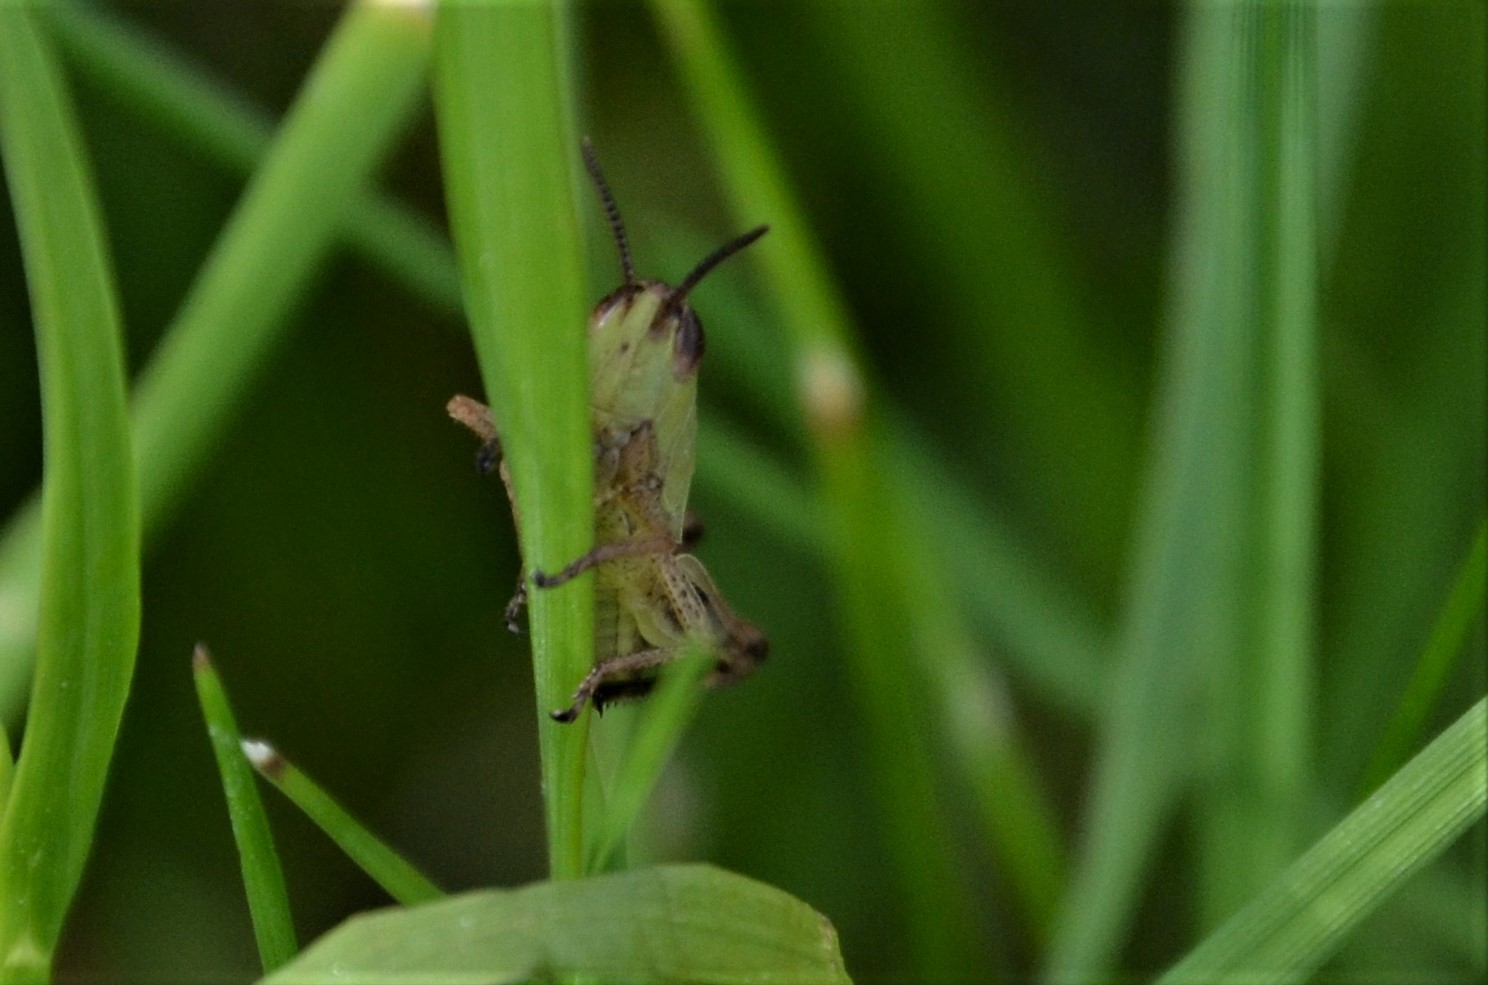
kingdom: Animalia
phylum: Arthropoda
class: Insecta
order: Orthoptera
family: Acrididae
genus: Pseudochorthippus
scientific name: Pseudochorthippus parallelus
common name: Meadow grasshopper
